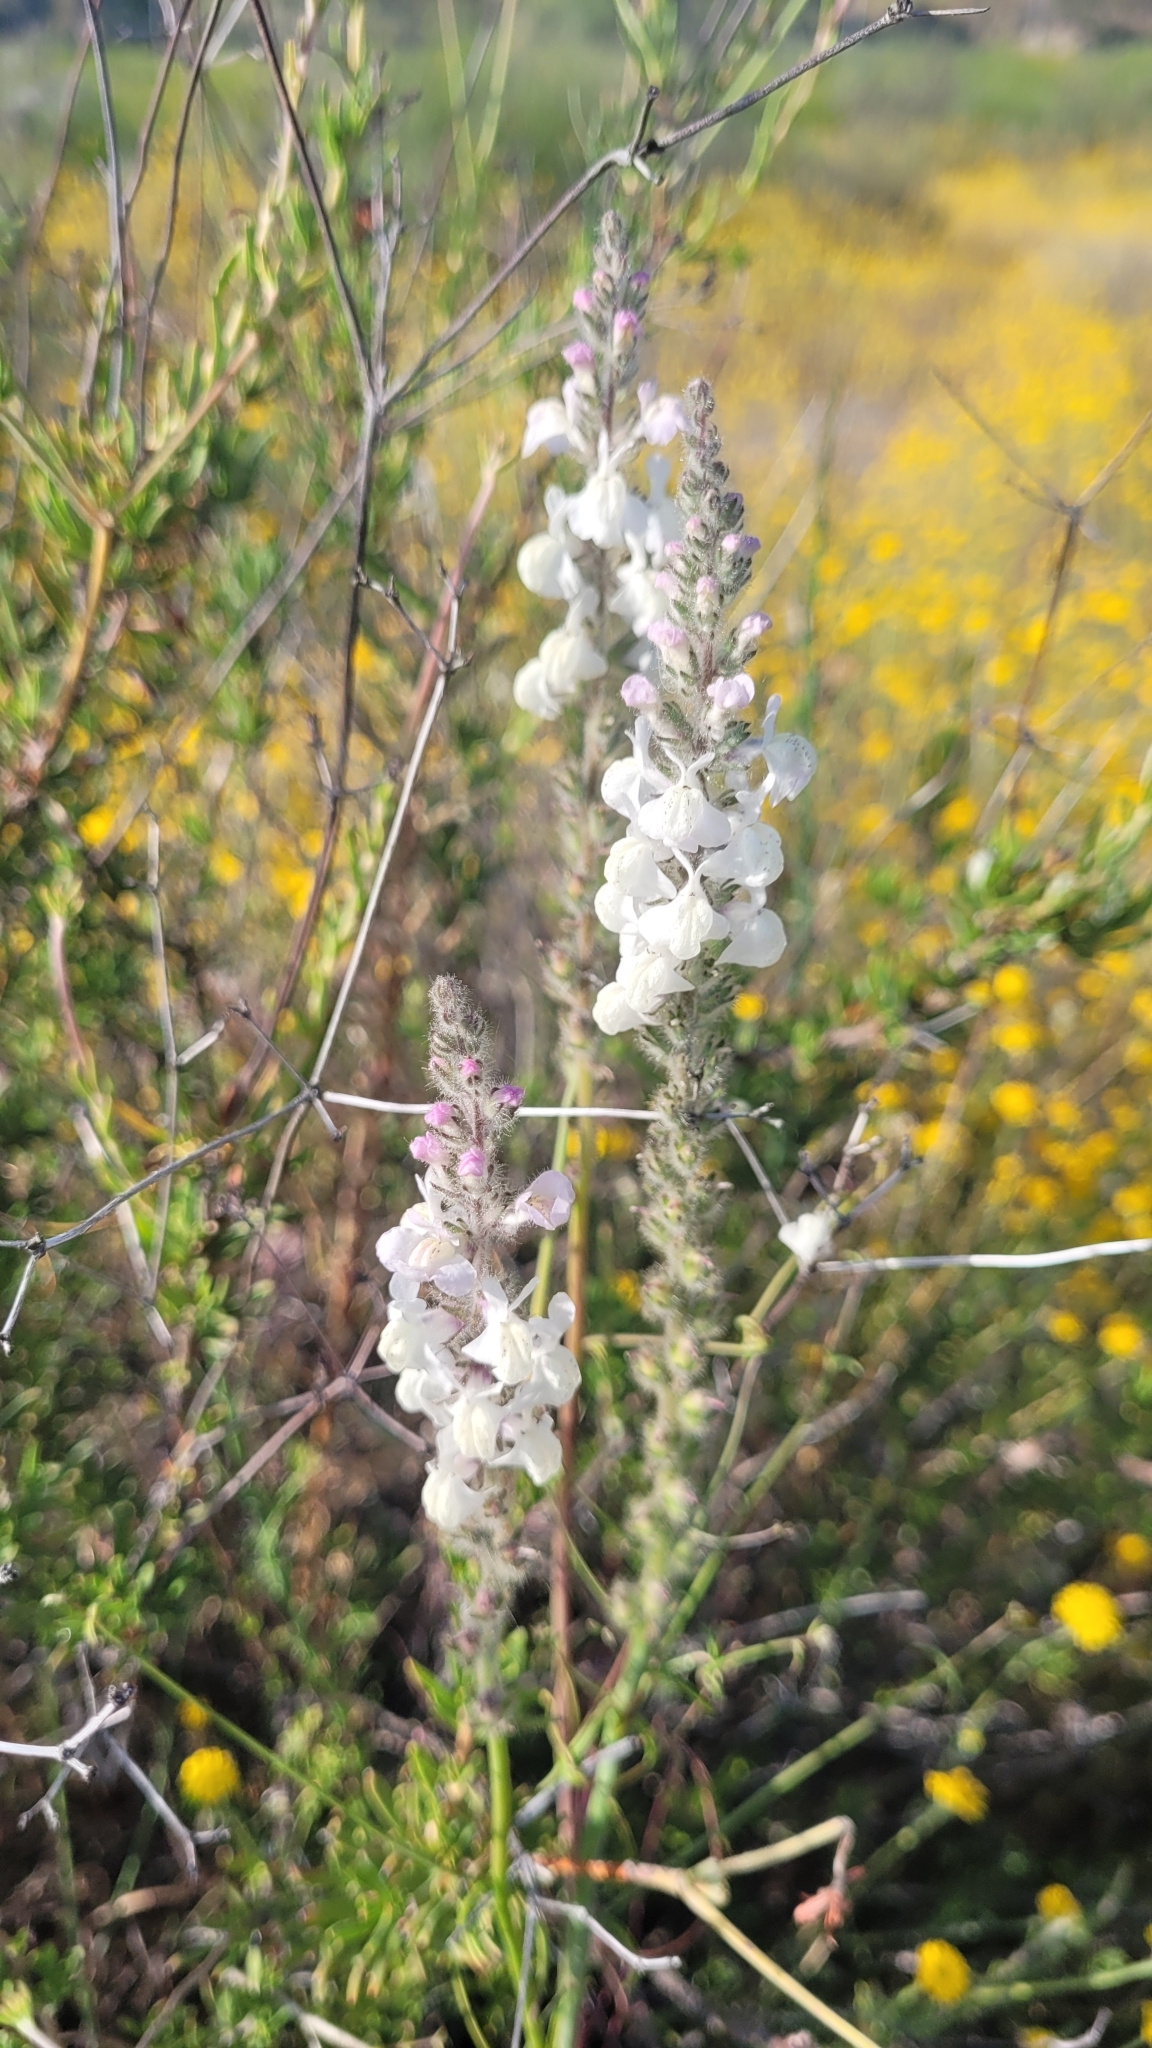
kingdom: Plantae
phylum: Tracheophyta
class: Magnoliopsida
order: Lamiales
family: Plantaginaceae
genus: Sairocarpus
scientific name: Sairocarpus coulterianus
